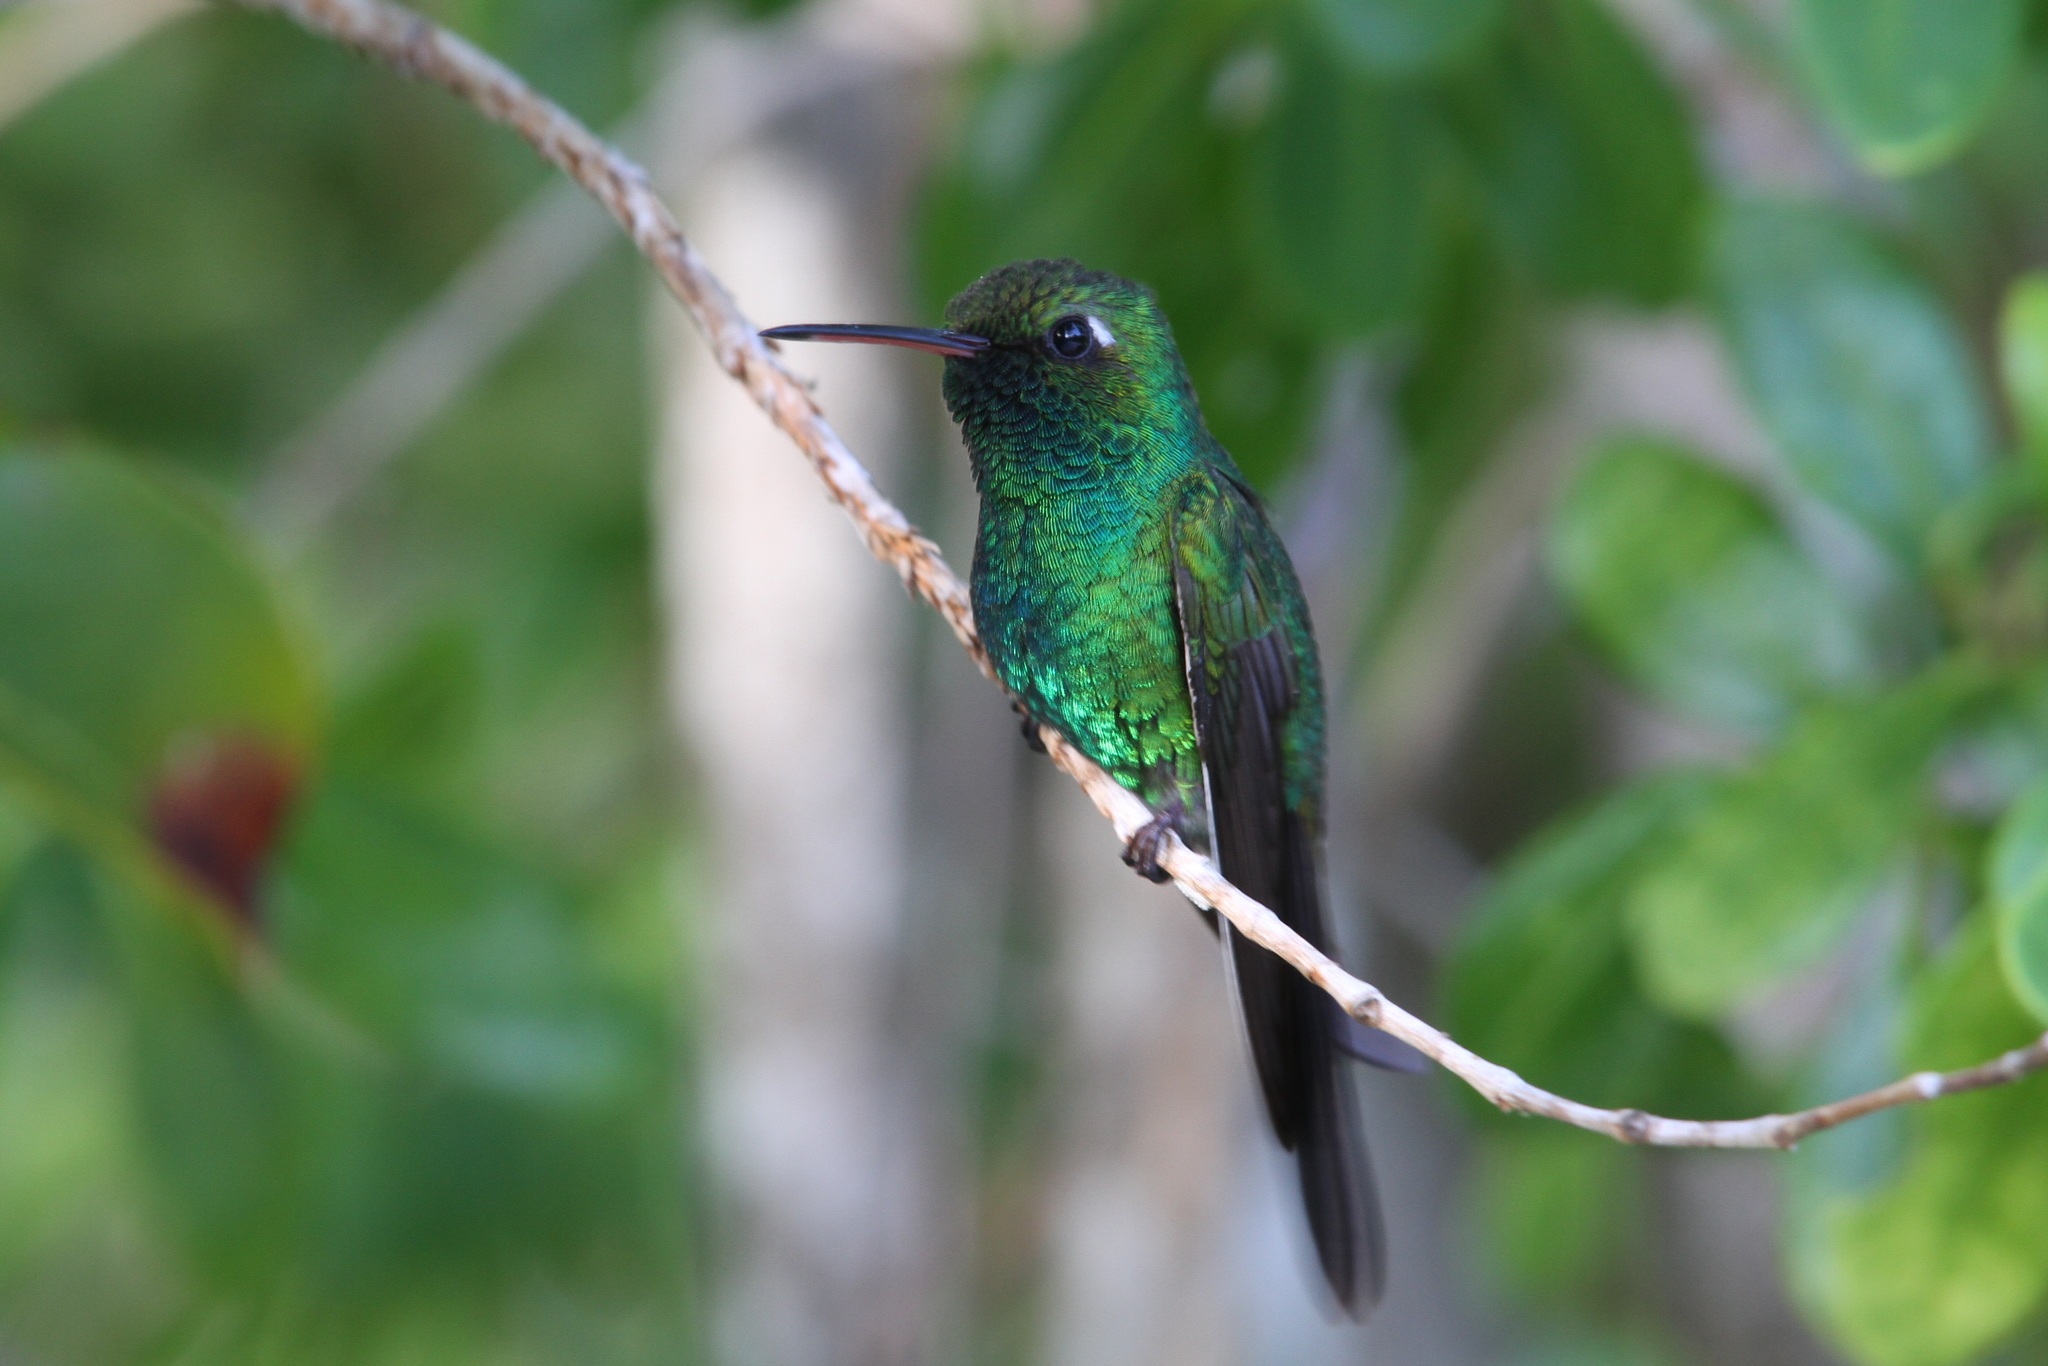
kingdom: Animalia
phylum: Chordata
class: Aves
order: Apodiformes
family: Trochilidae
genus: Riccordia
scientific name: Riccordia ricordii
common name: Cuban emerald
